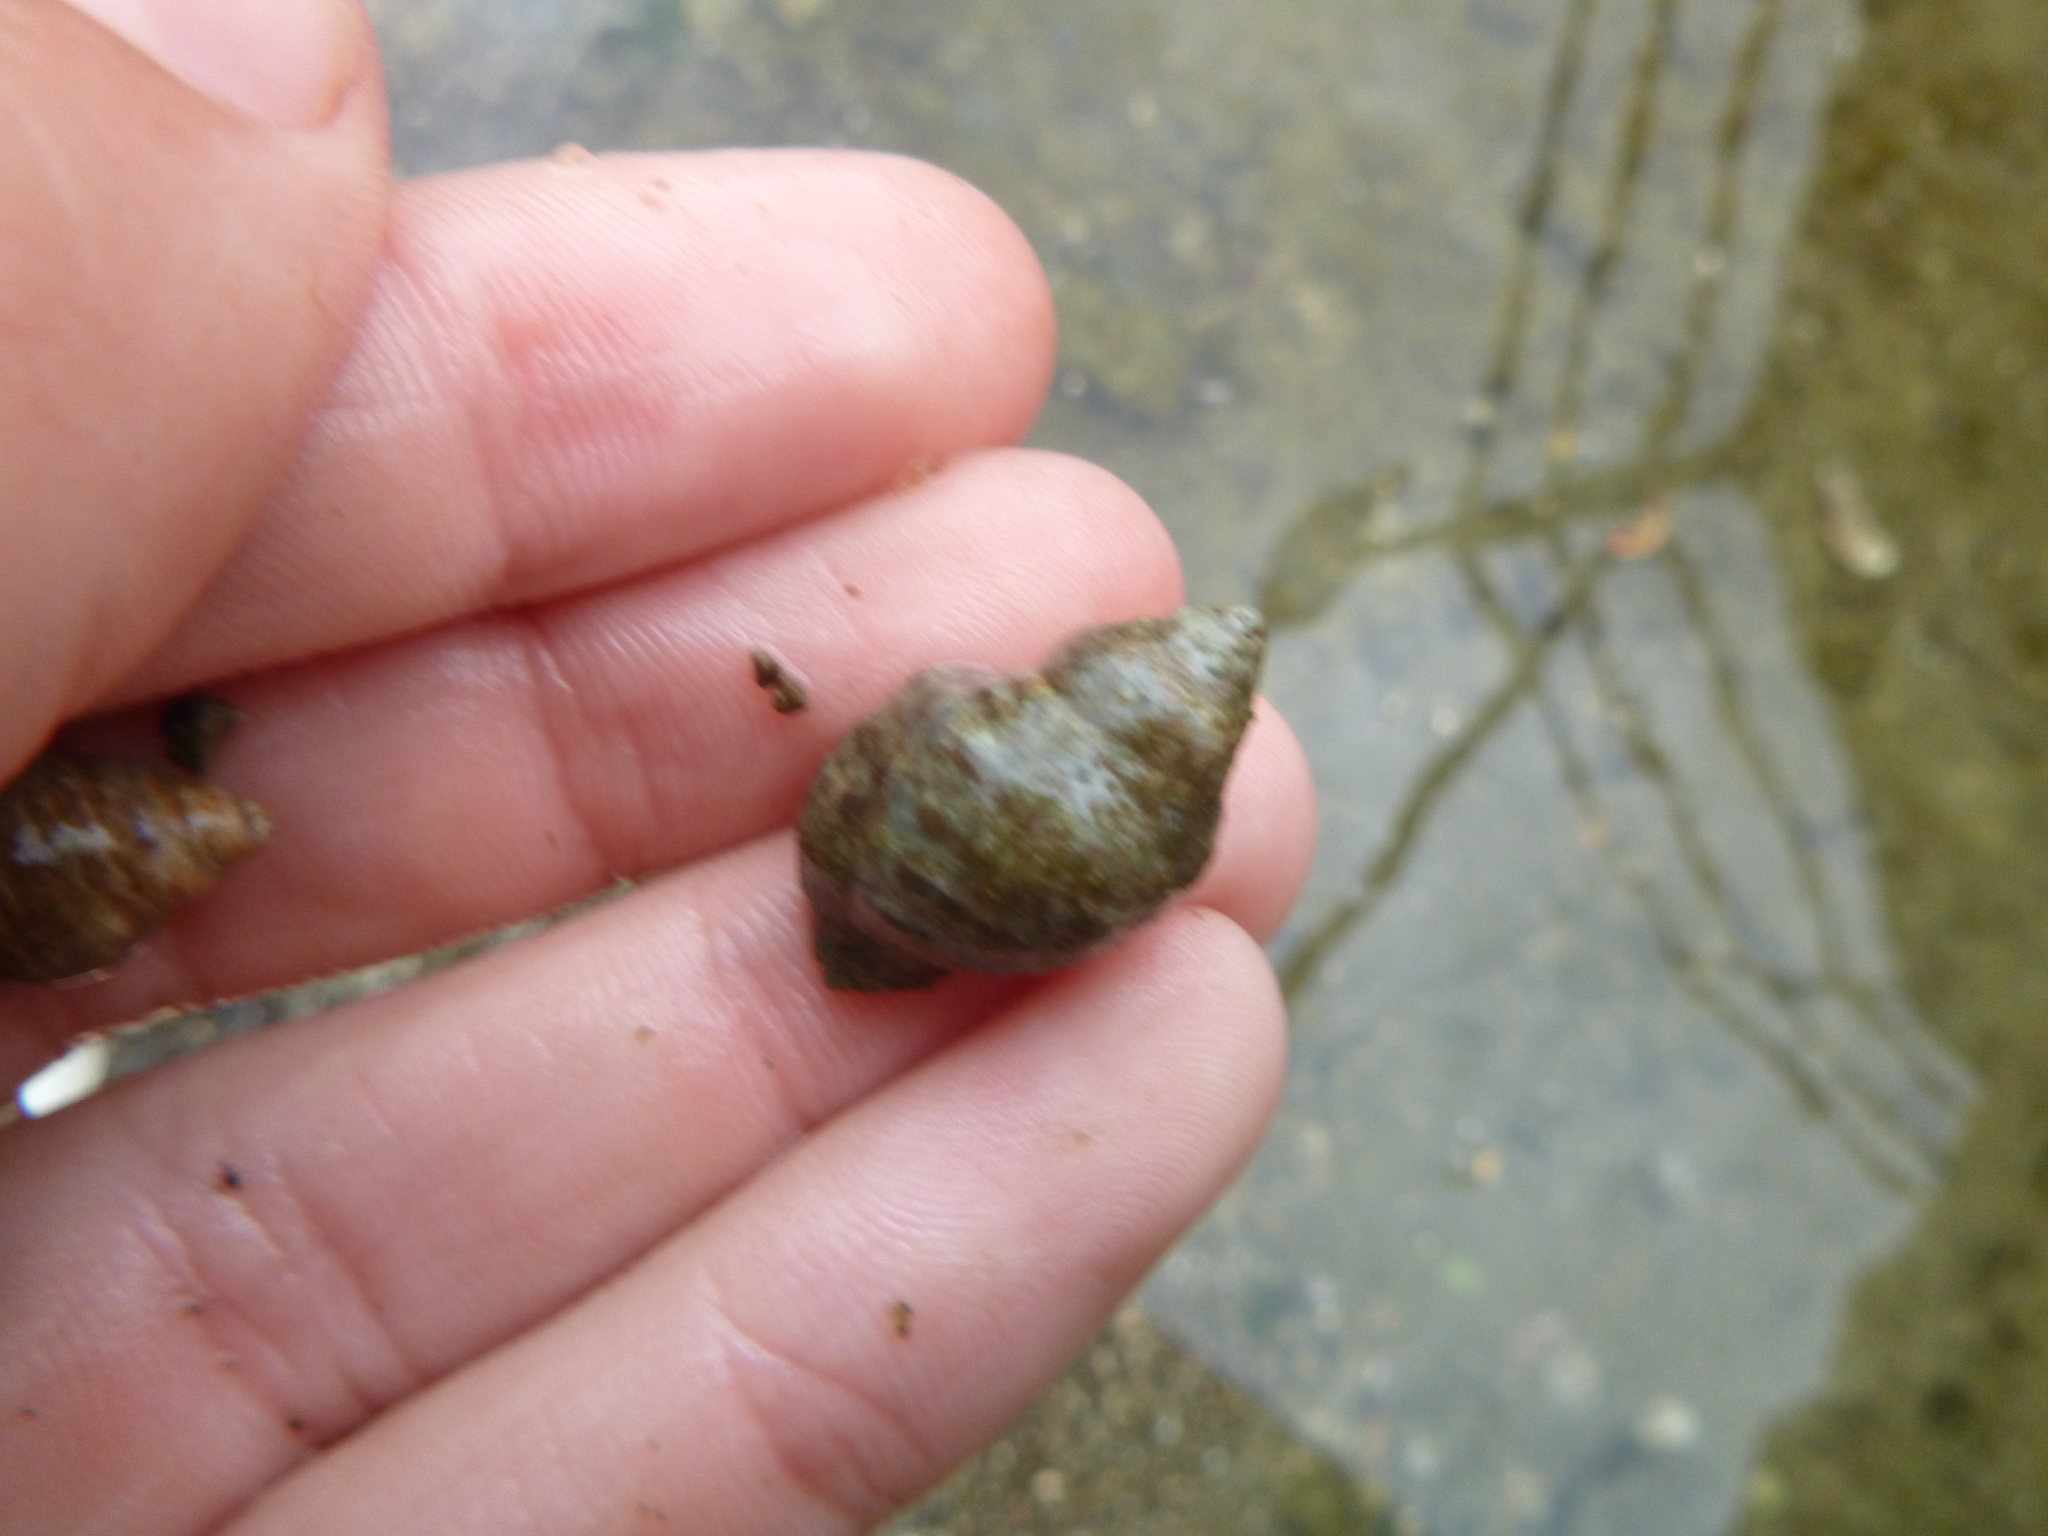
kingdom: Animalia
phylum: Mollusca
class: Gastropoda
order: Neogastropoda
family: Muricidae
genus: Haustrum
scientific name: Haustrum scobina
